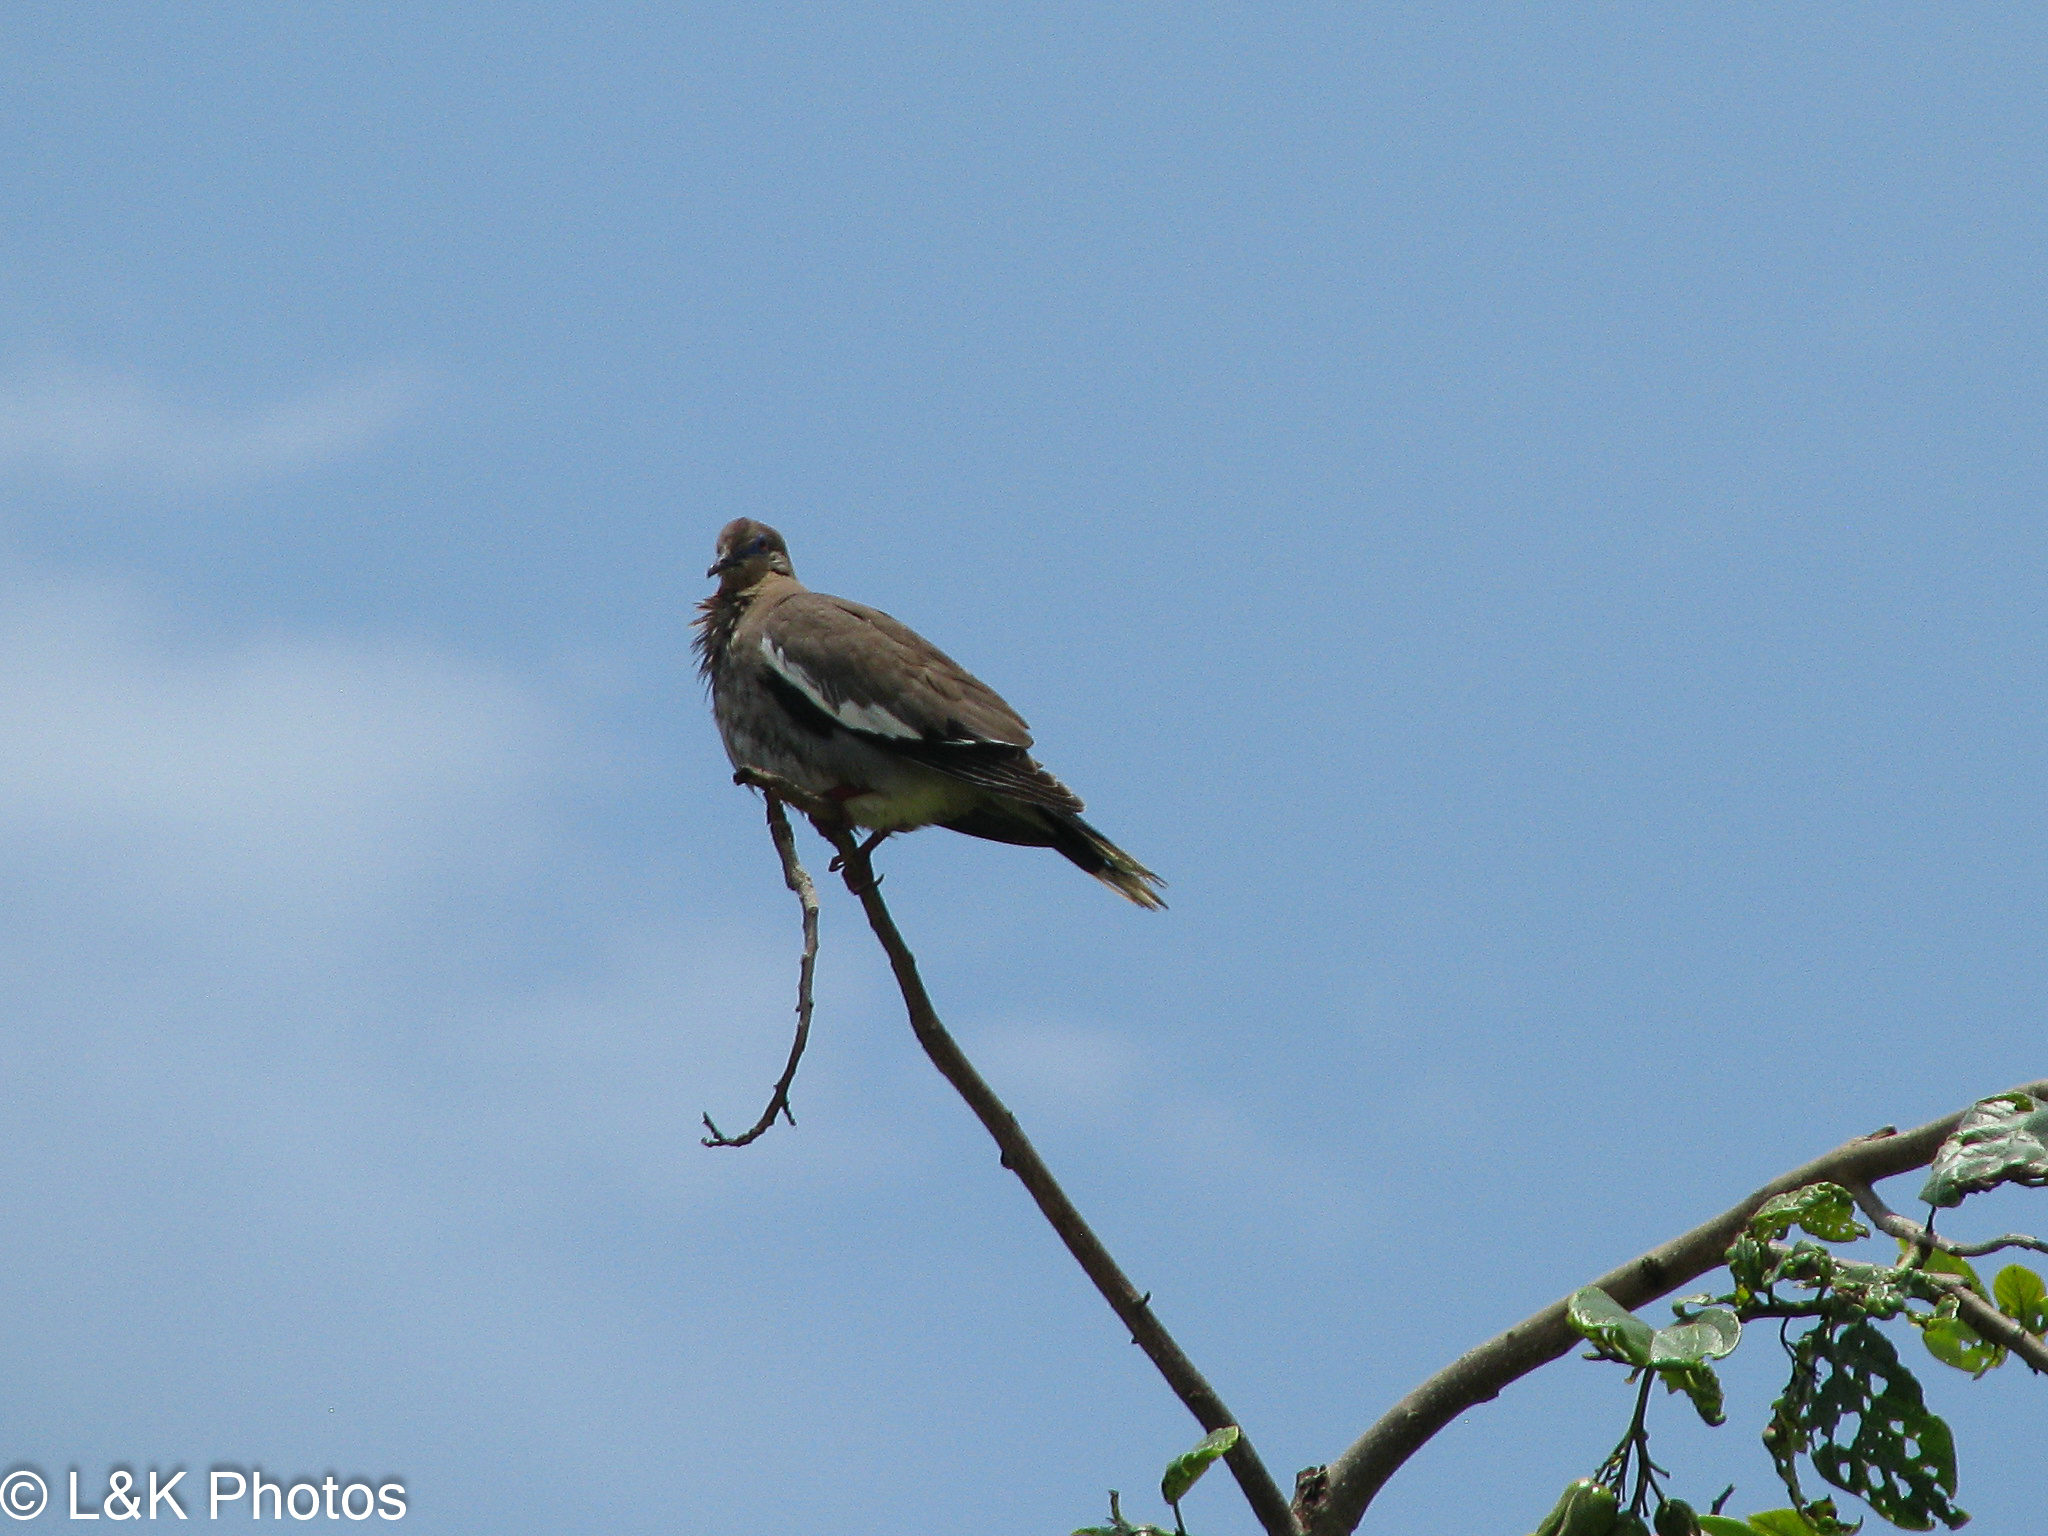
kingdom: Animalia
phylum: Chordata
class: Aves
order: Columbiformes
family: Columbidae
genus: Zenaida
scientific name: Zenaida asiatica
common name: White-winged dove
